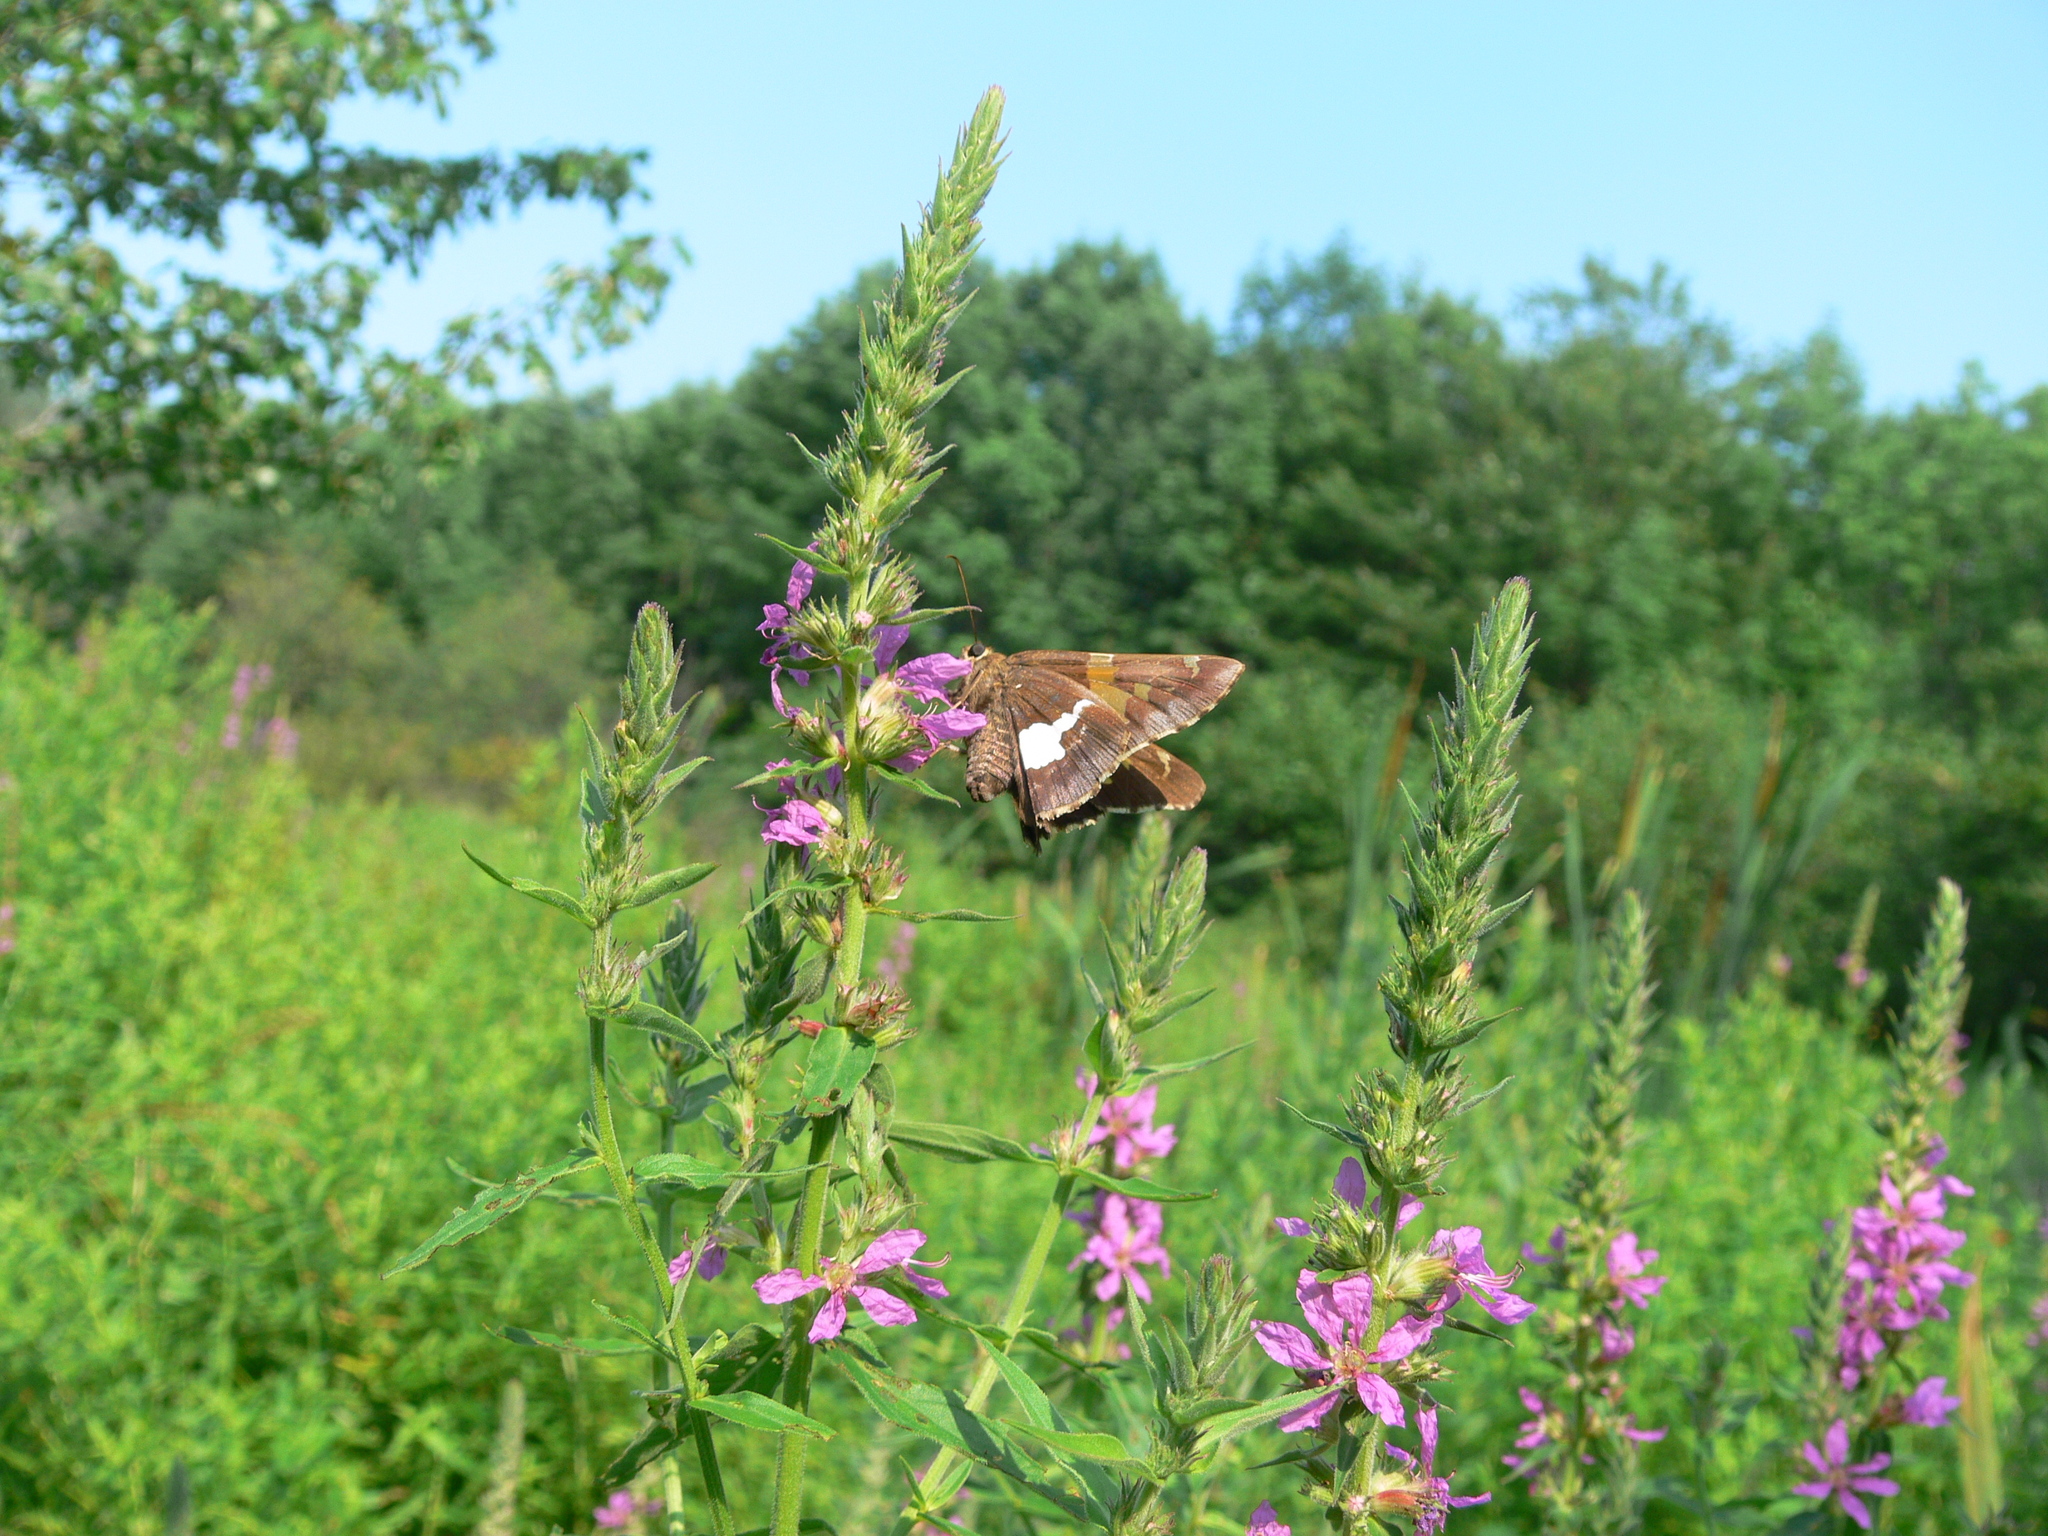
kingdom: Animalia
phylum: Arthropoda
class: Insecta
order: Lepidoptera
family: Hesperiidae
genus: Epargyreus
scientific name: Epargyreus clarus
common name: Silver-spotted skipper
